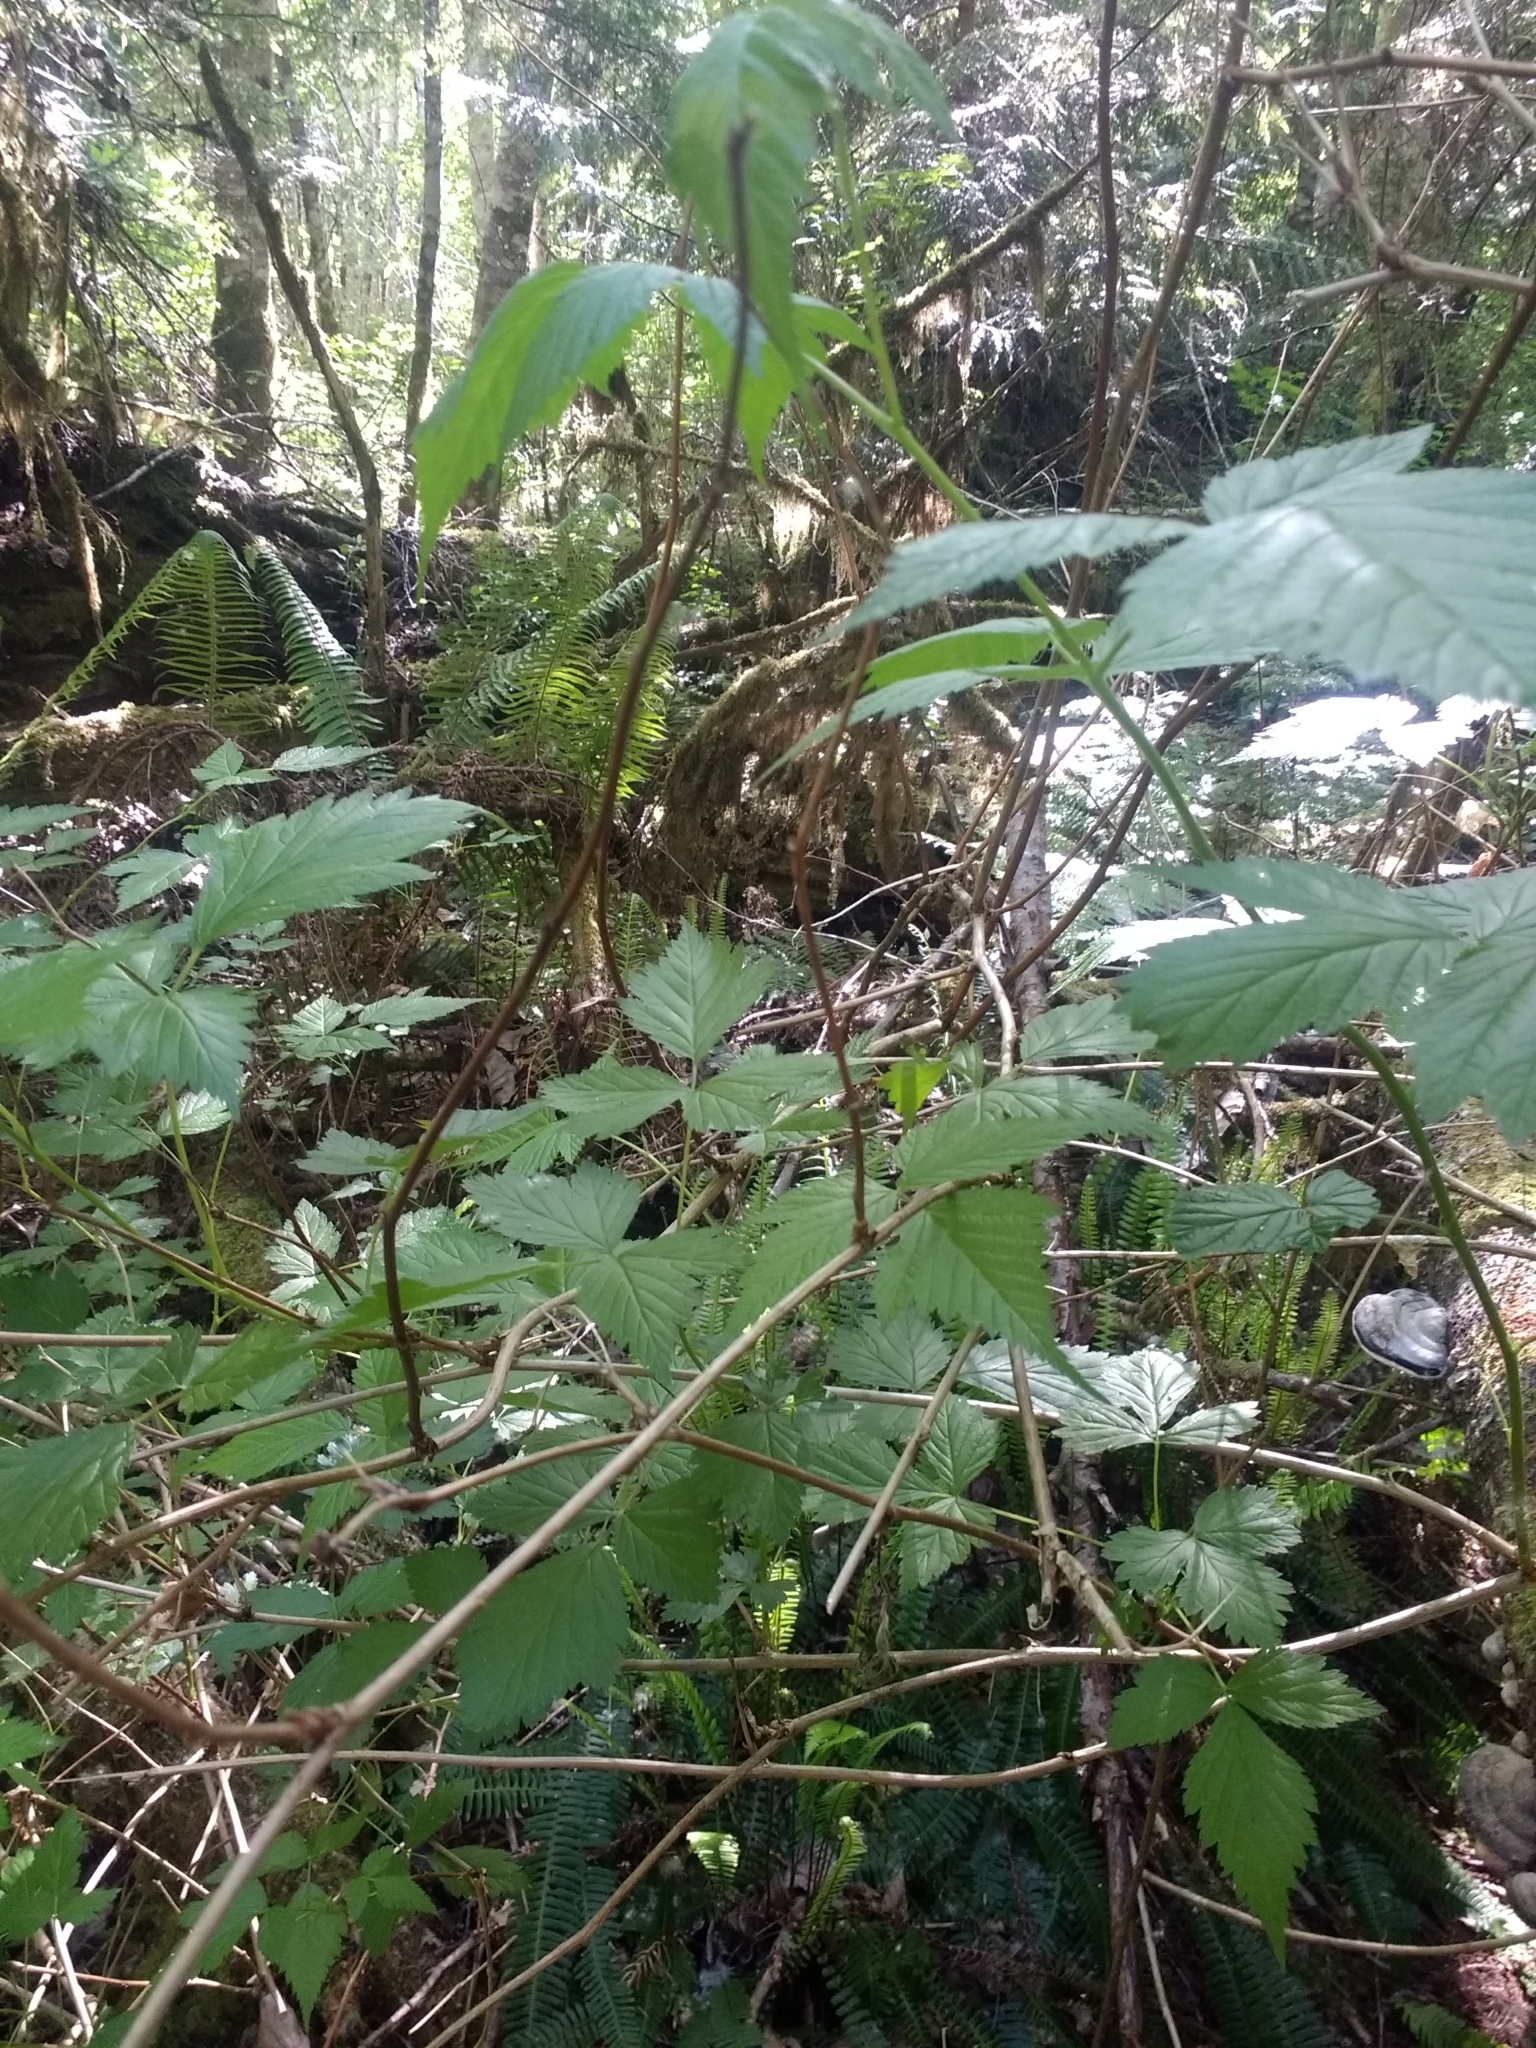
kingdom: Plantae
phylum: Tracheophyta
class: Magnoliopsida
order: Rosales
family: Rosaceae
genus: Rubus
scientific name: Rubus spectabilis
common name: Salmonberry
